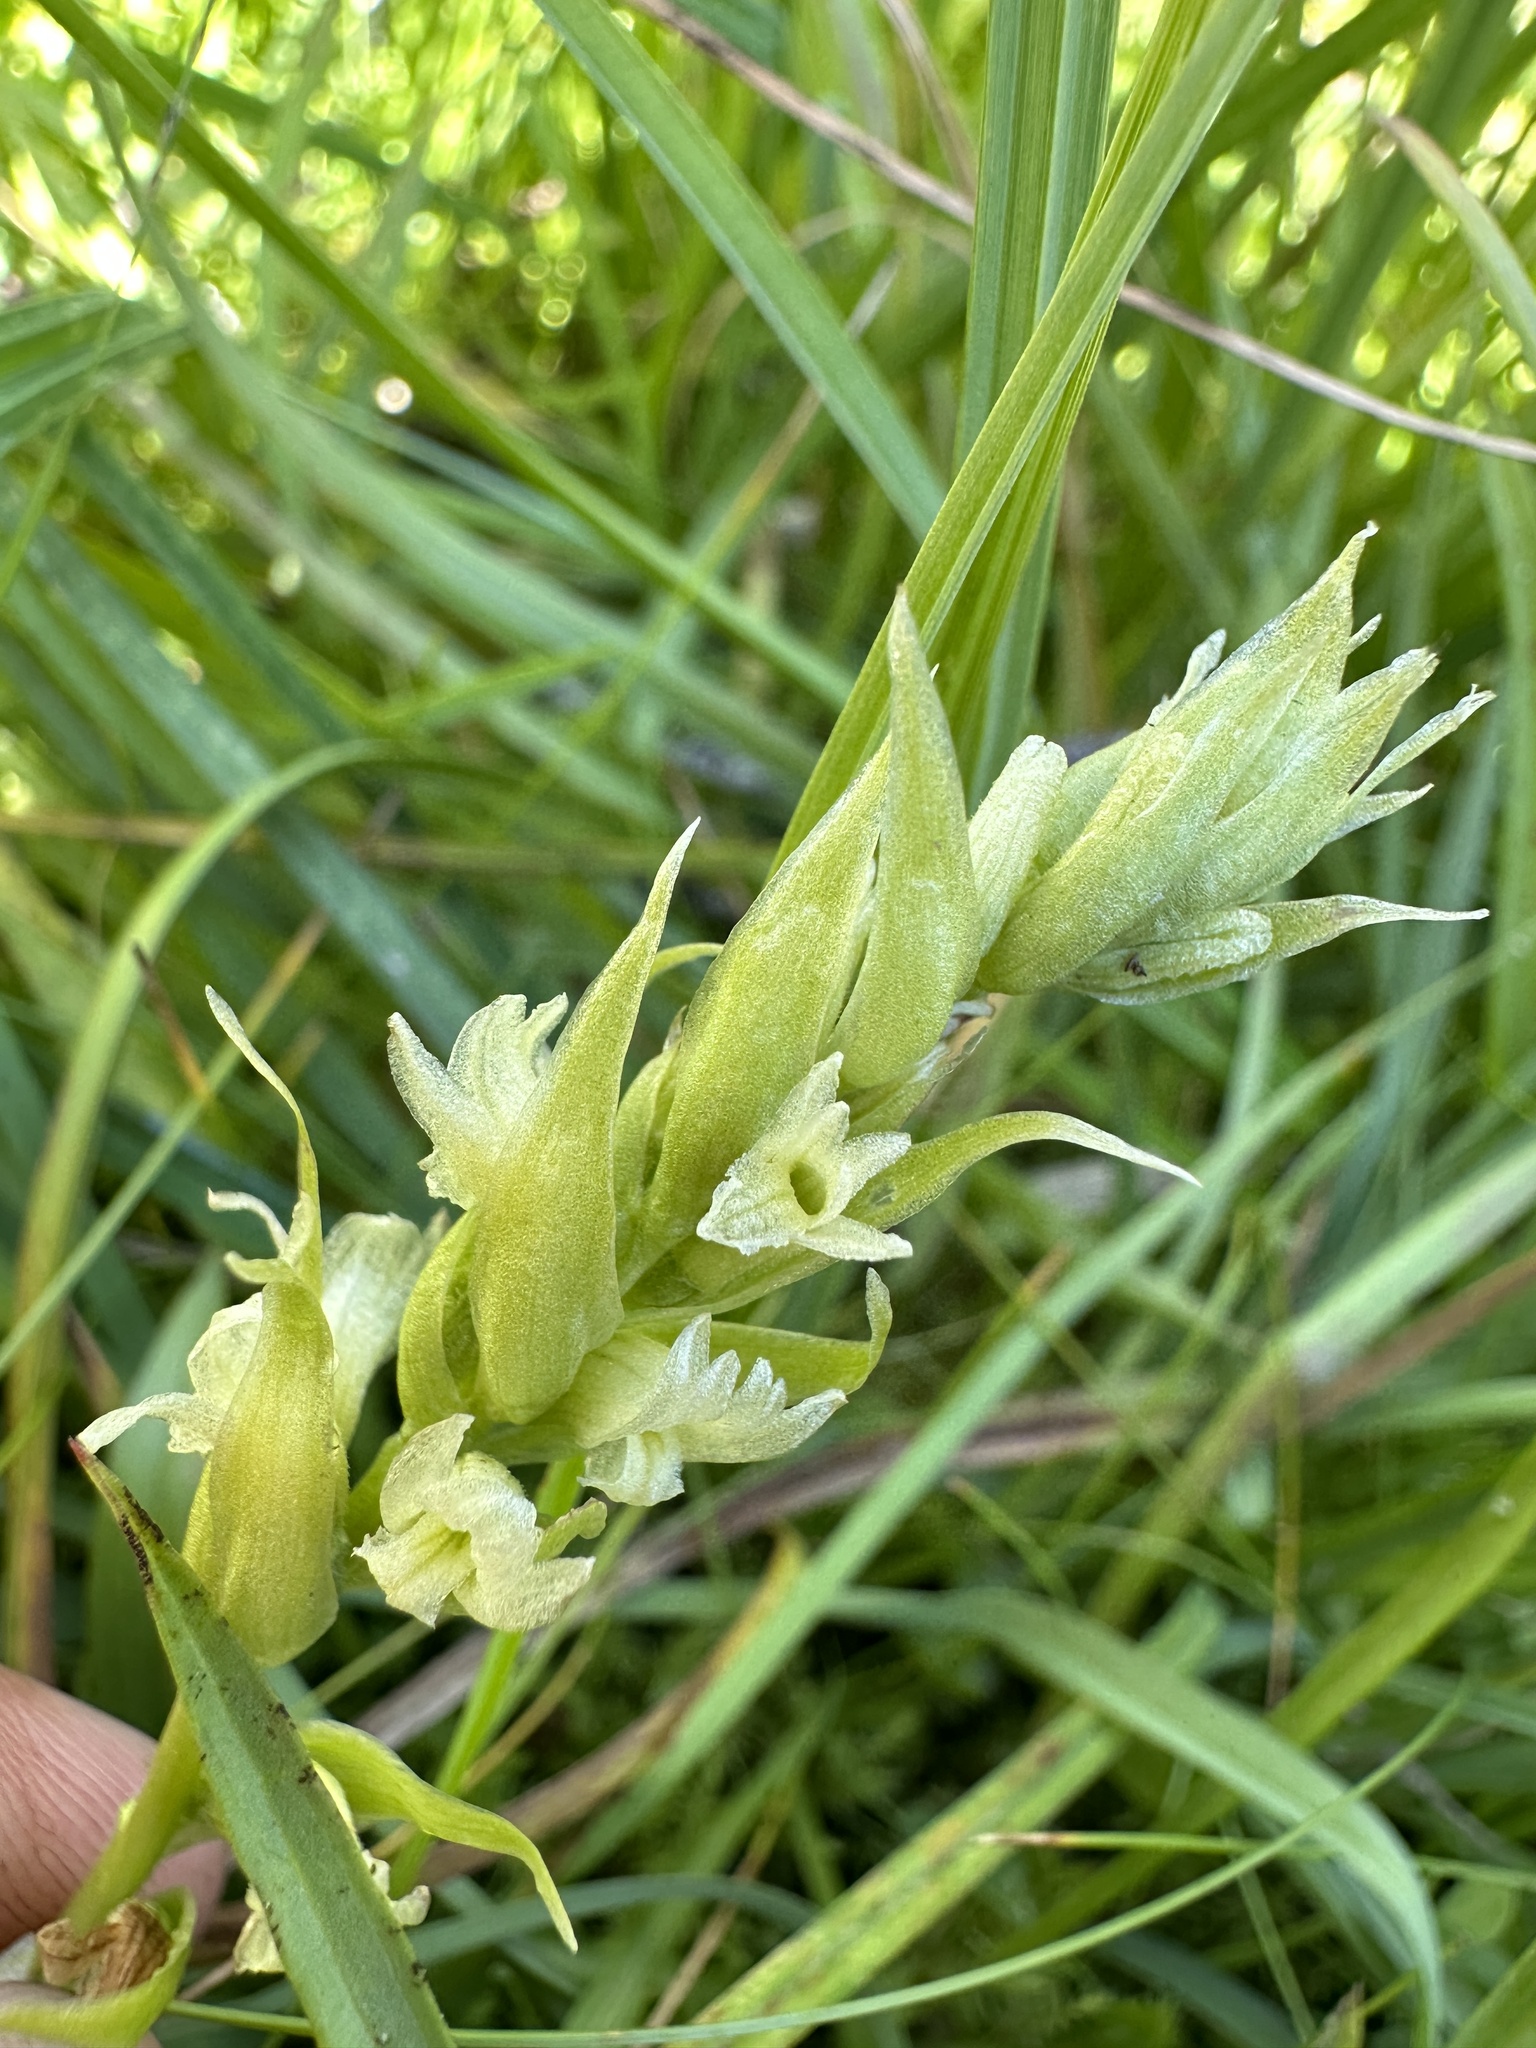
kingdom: Plantae
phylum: Tracheophyta
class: Liliopsida
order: Asparagales
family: Orchidaceae
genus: Spiranthes
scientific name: Spiranthes romanzoffiana
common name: Irish lady's-tresses
